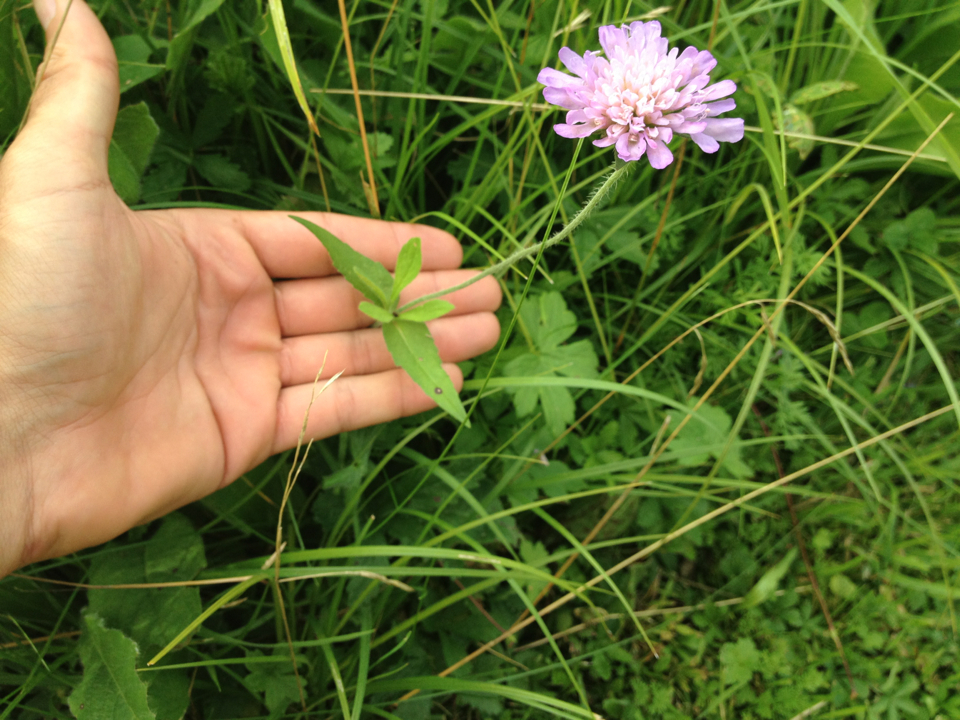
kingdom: Plantae
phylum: Tracheophyta
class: Magnoliopsida
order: Dipsacales
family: Caprifoliaceae
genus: Knautia
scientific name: Knautia dipsacifolia
